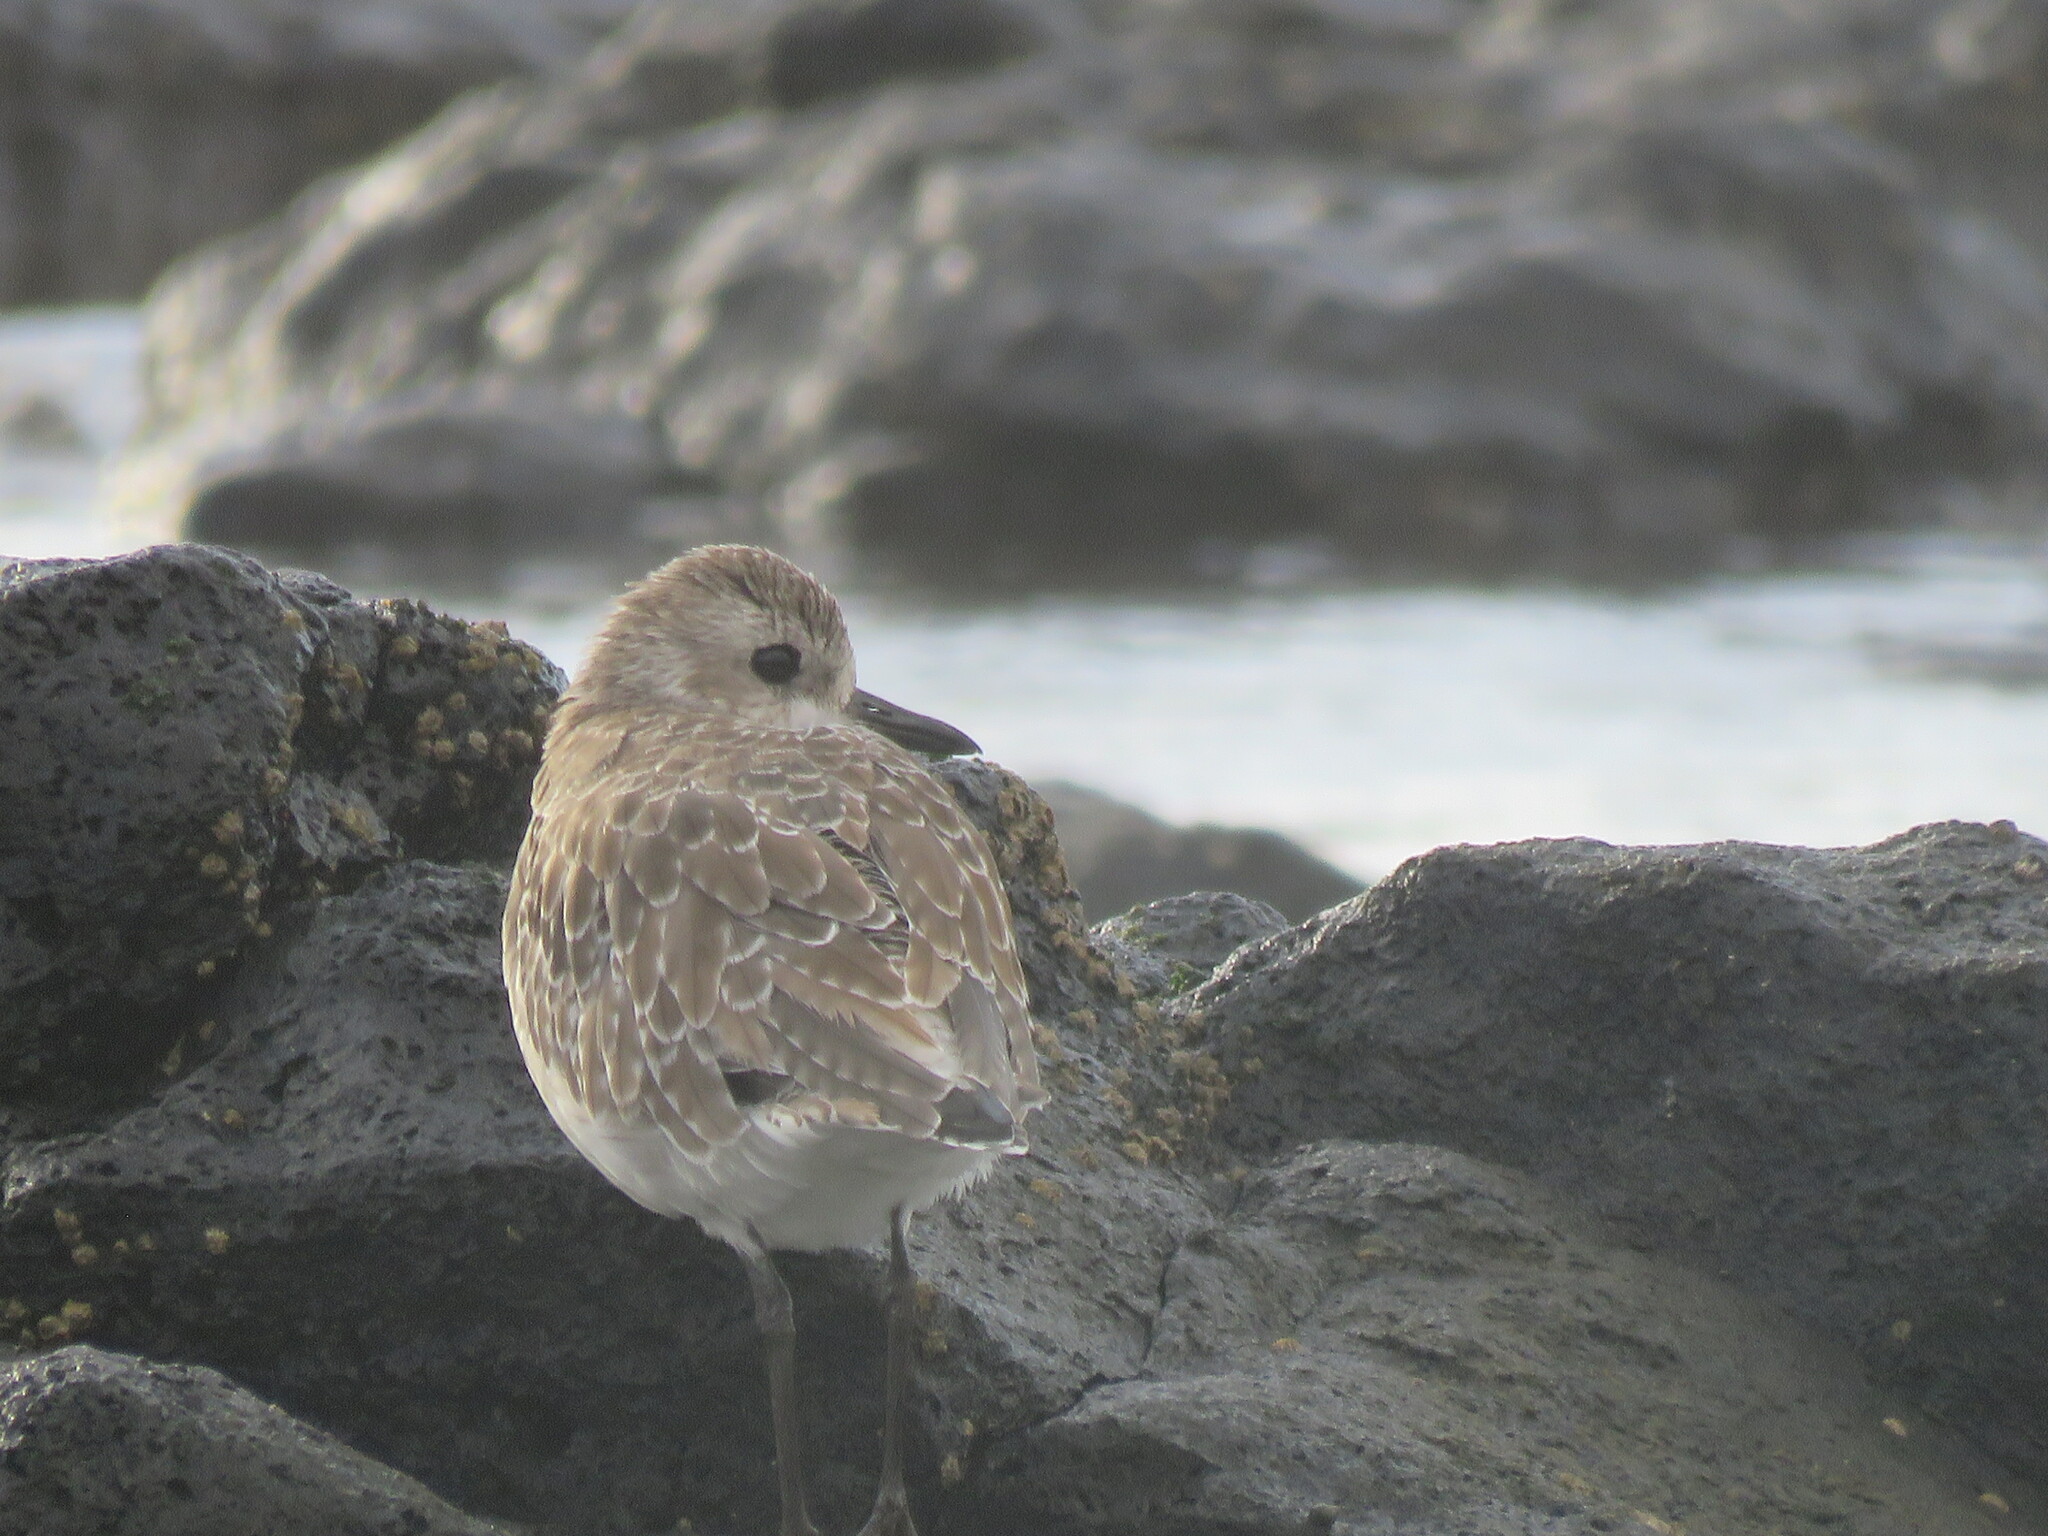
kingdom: Animalia
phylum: Chordata
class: Aves
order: Charadriiformes
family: Charadriidae
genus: Pluvialis
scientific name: Pluvialis squatarola
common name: Grey plover
